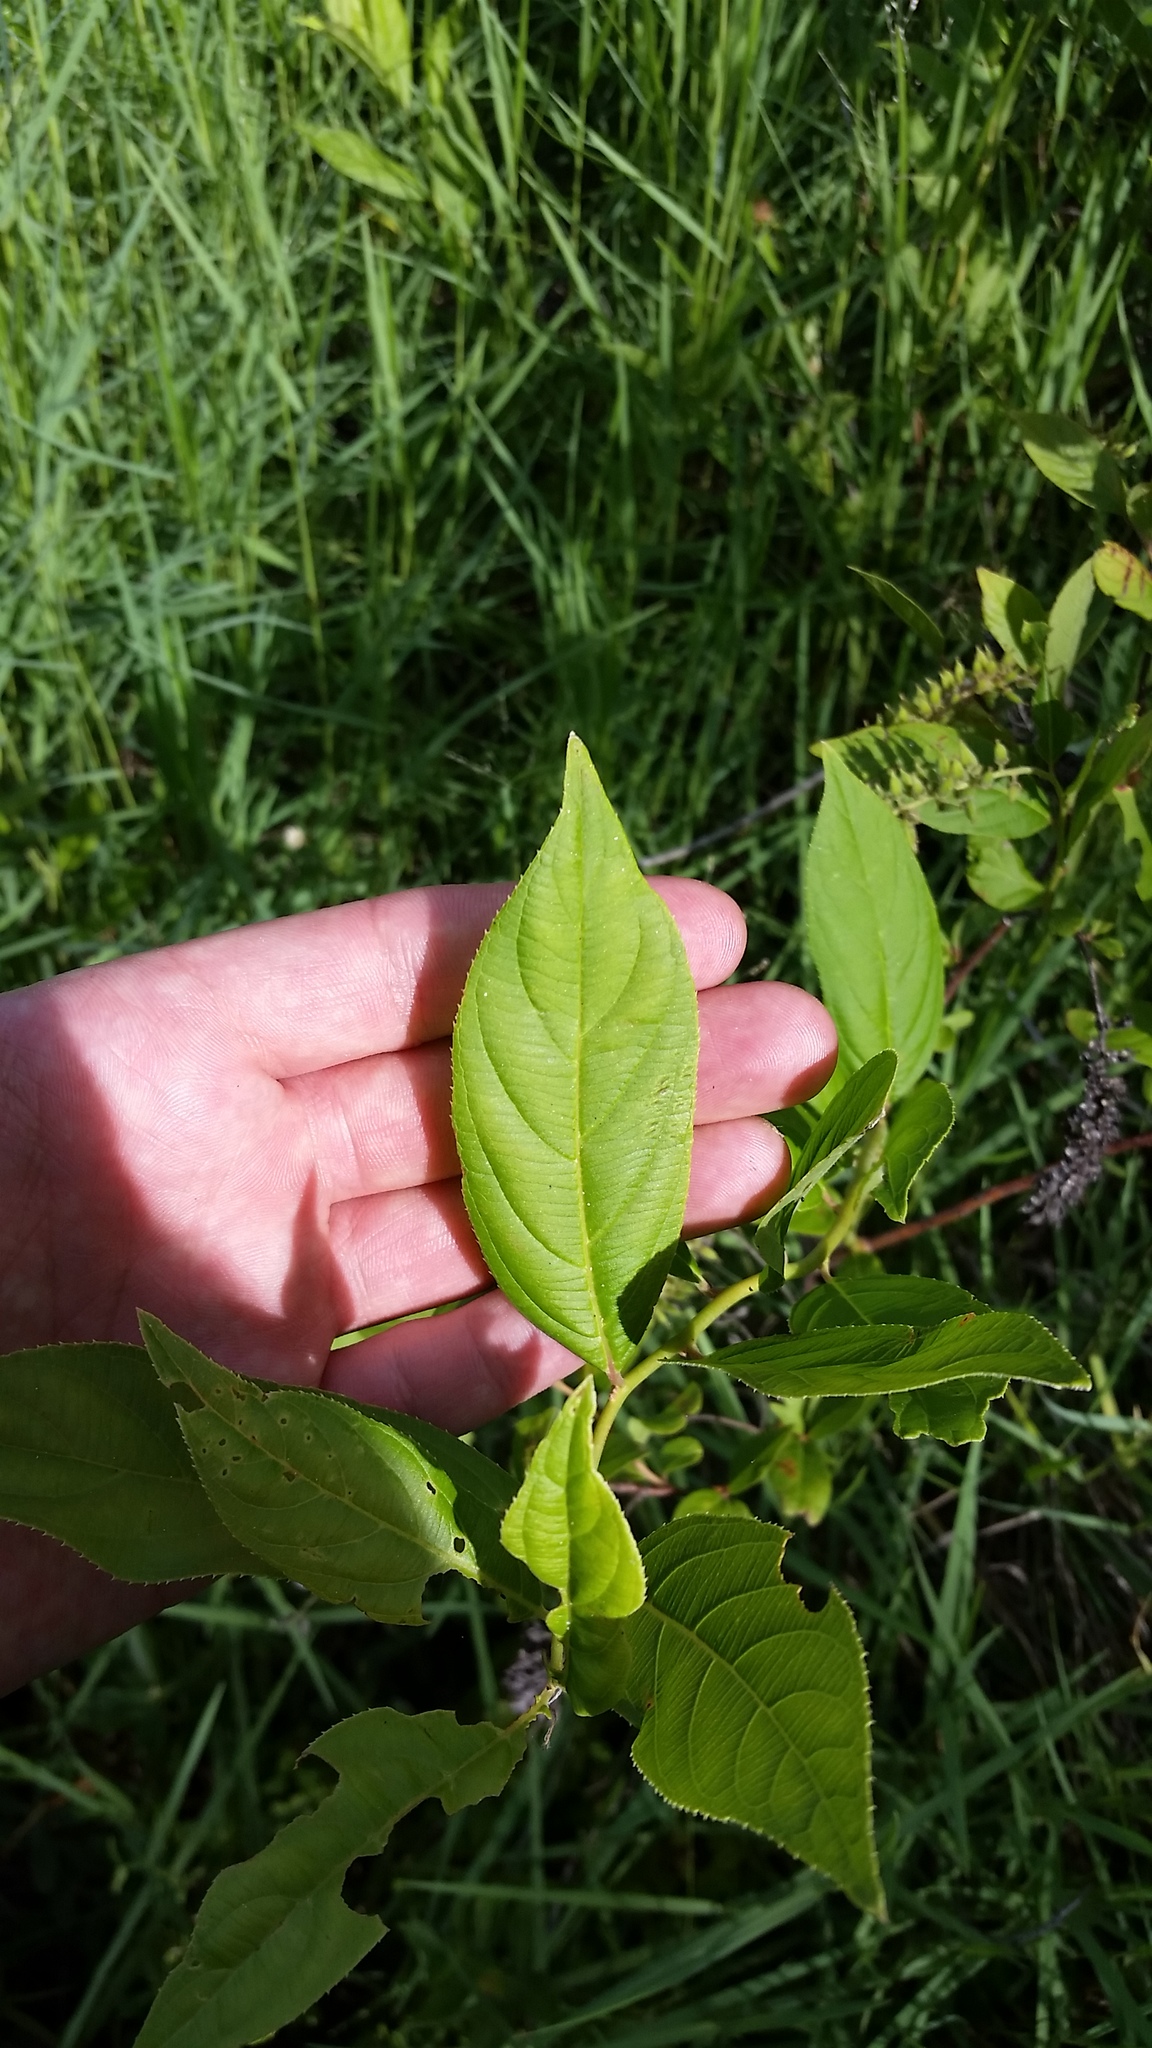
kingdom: Plantae
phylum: Tracheophyta
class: Magnoliopsida
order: Saxifragales
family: Iteaceae
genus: Itea
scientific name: Itea virginica
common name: Sweetspire
